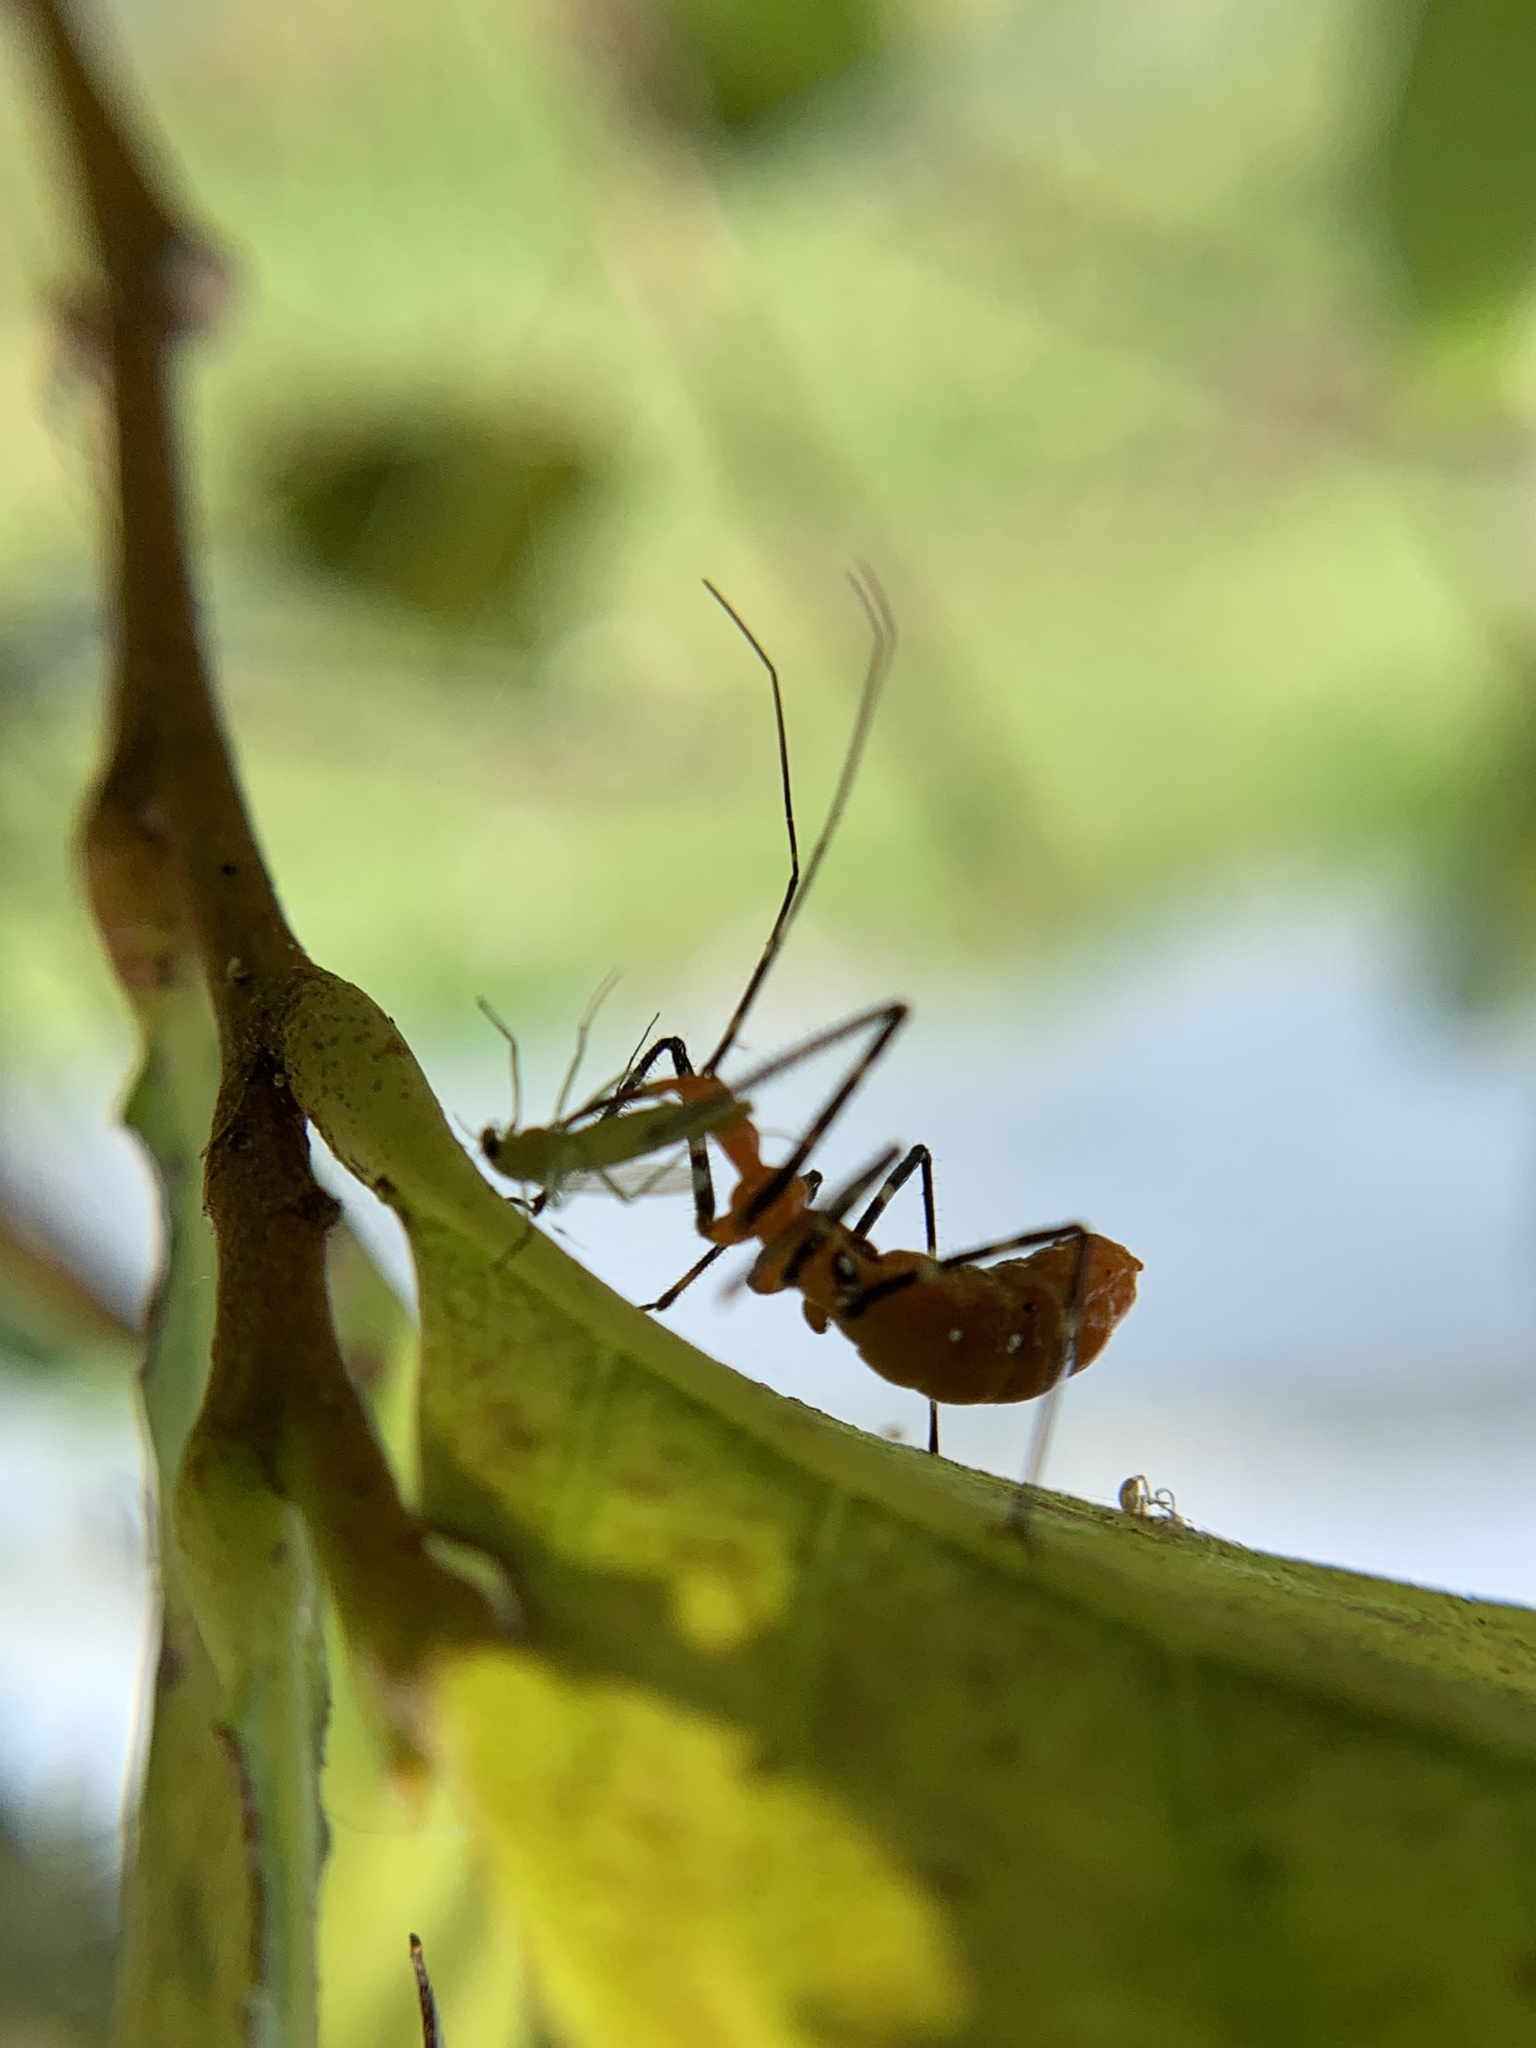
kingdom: Animalia
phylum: Arthropoda
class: Insecta
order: Hemiptera
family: Reduviidae
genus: Zelus
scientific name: Zelus longipes
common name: Milkweed assassin bug
